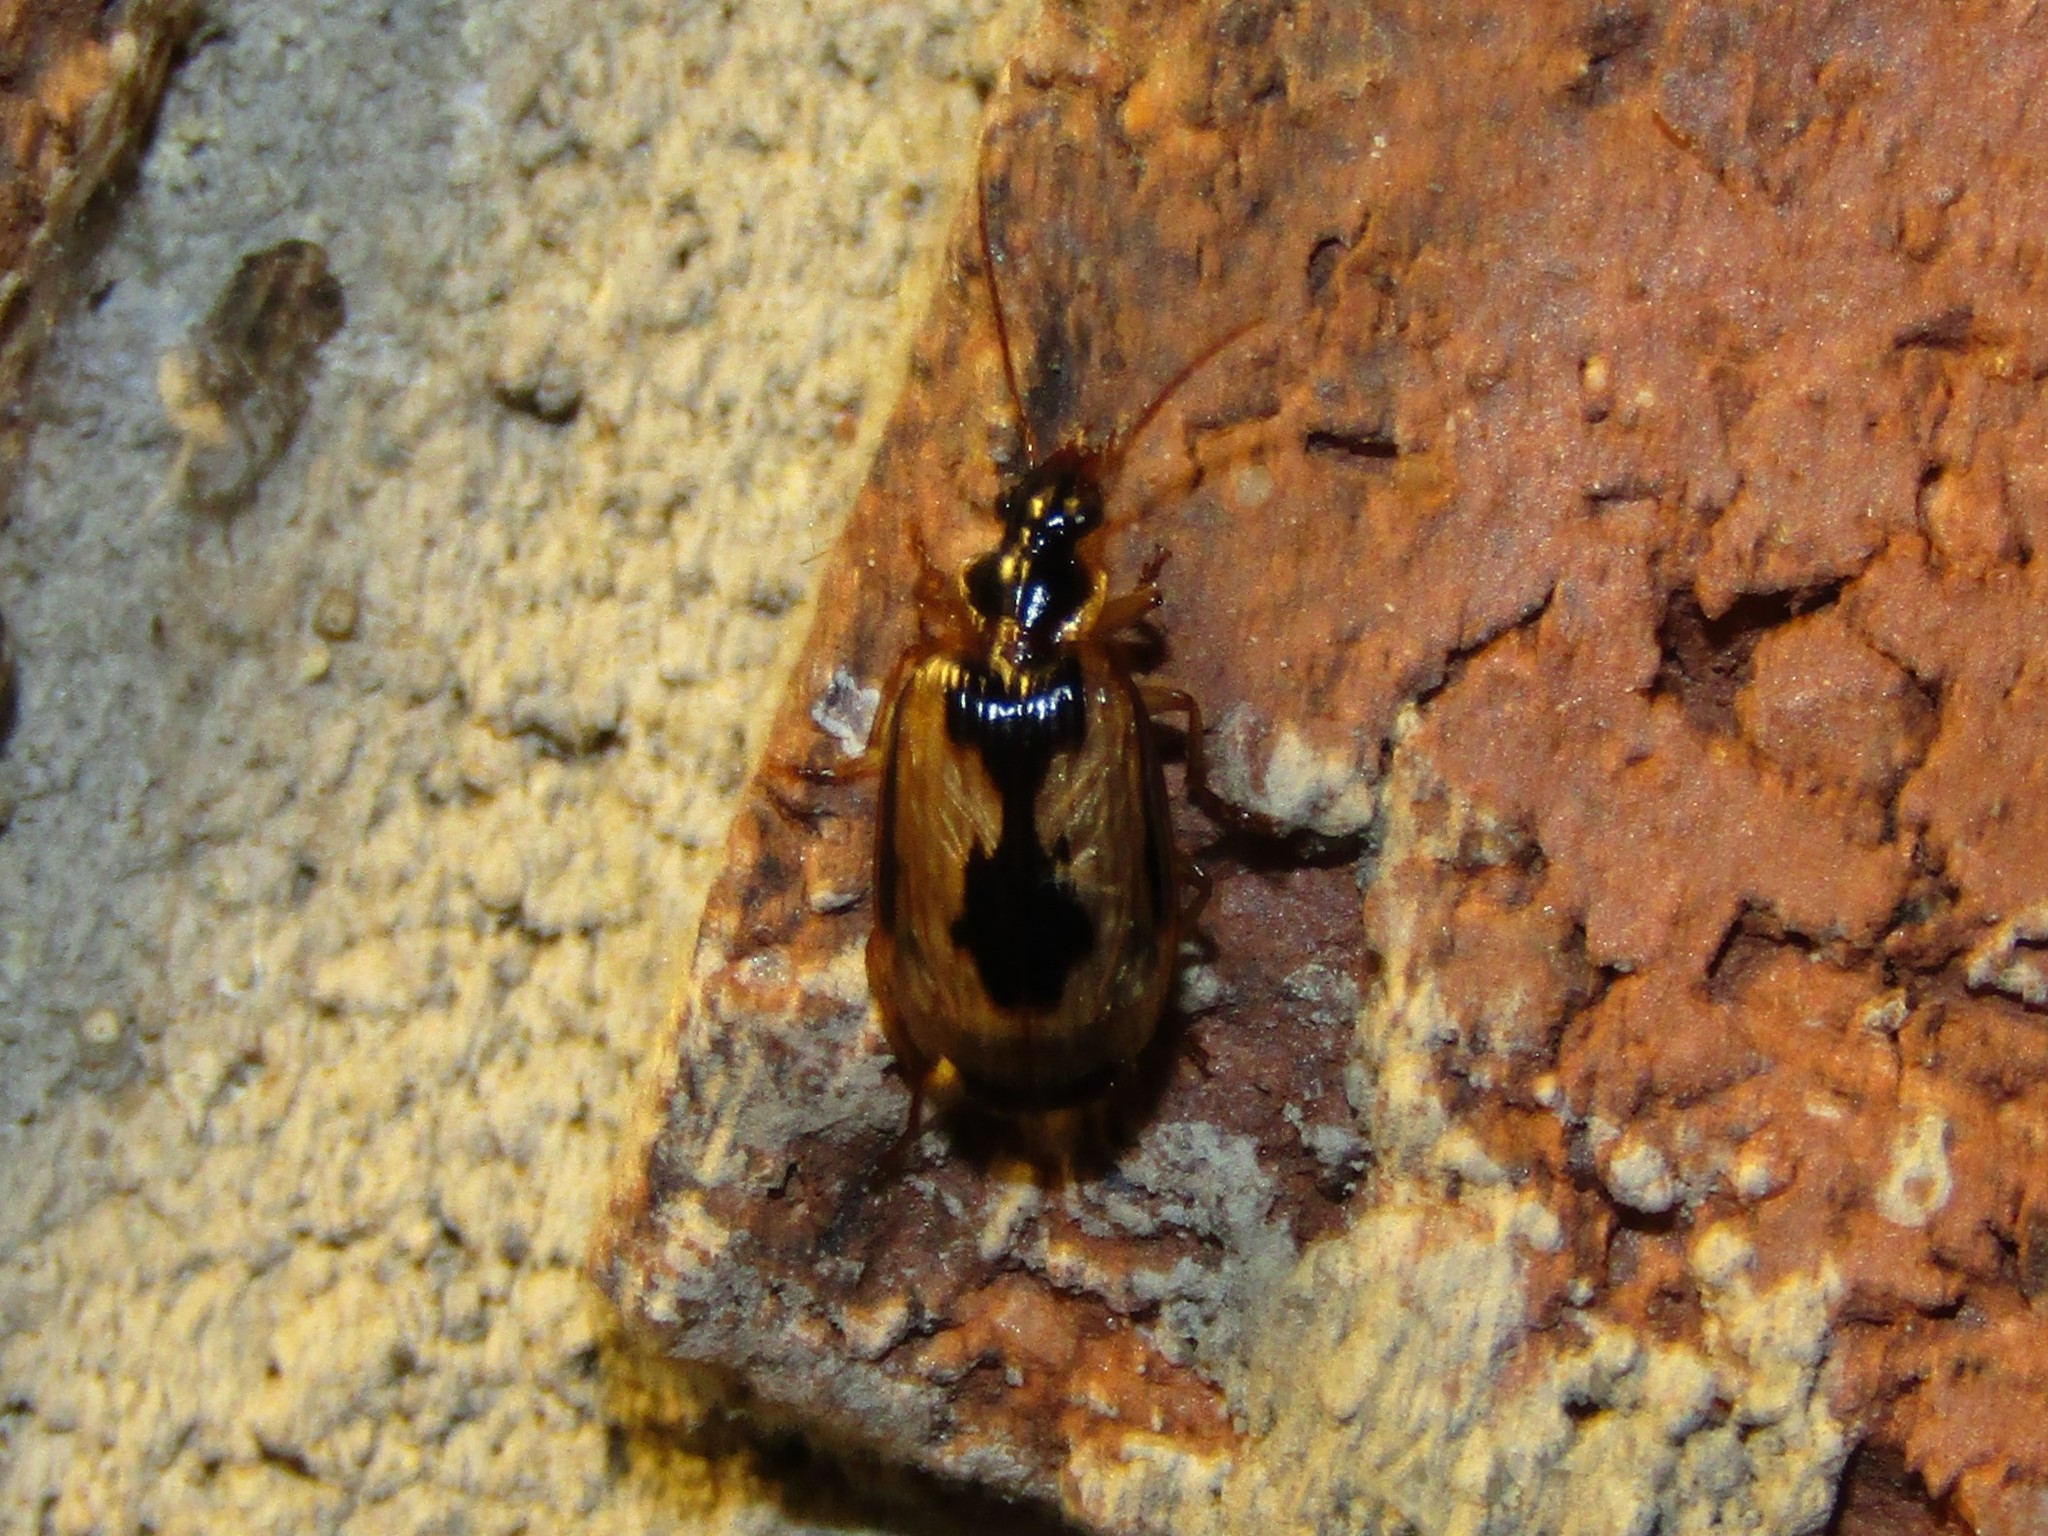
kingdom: Animalia
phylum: Arthropoda
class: Insecta
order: Coleoptera
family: Carabidae
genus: Lebia
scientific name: Lebia fuscata
